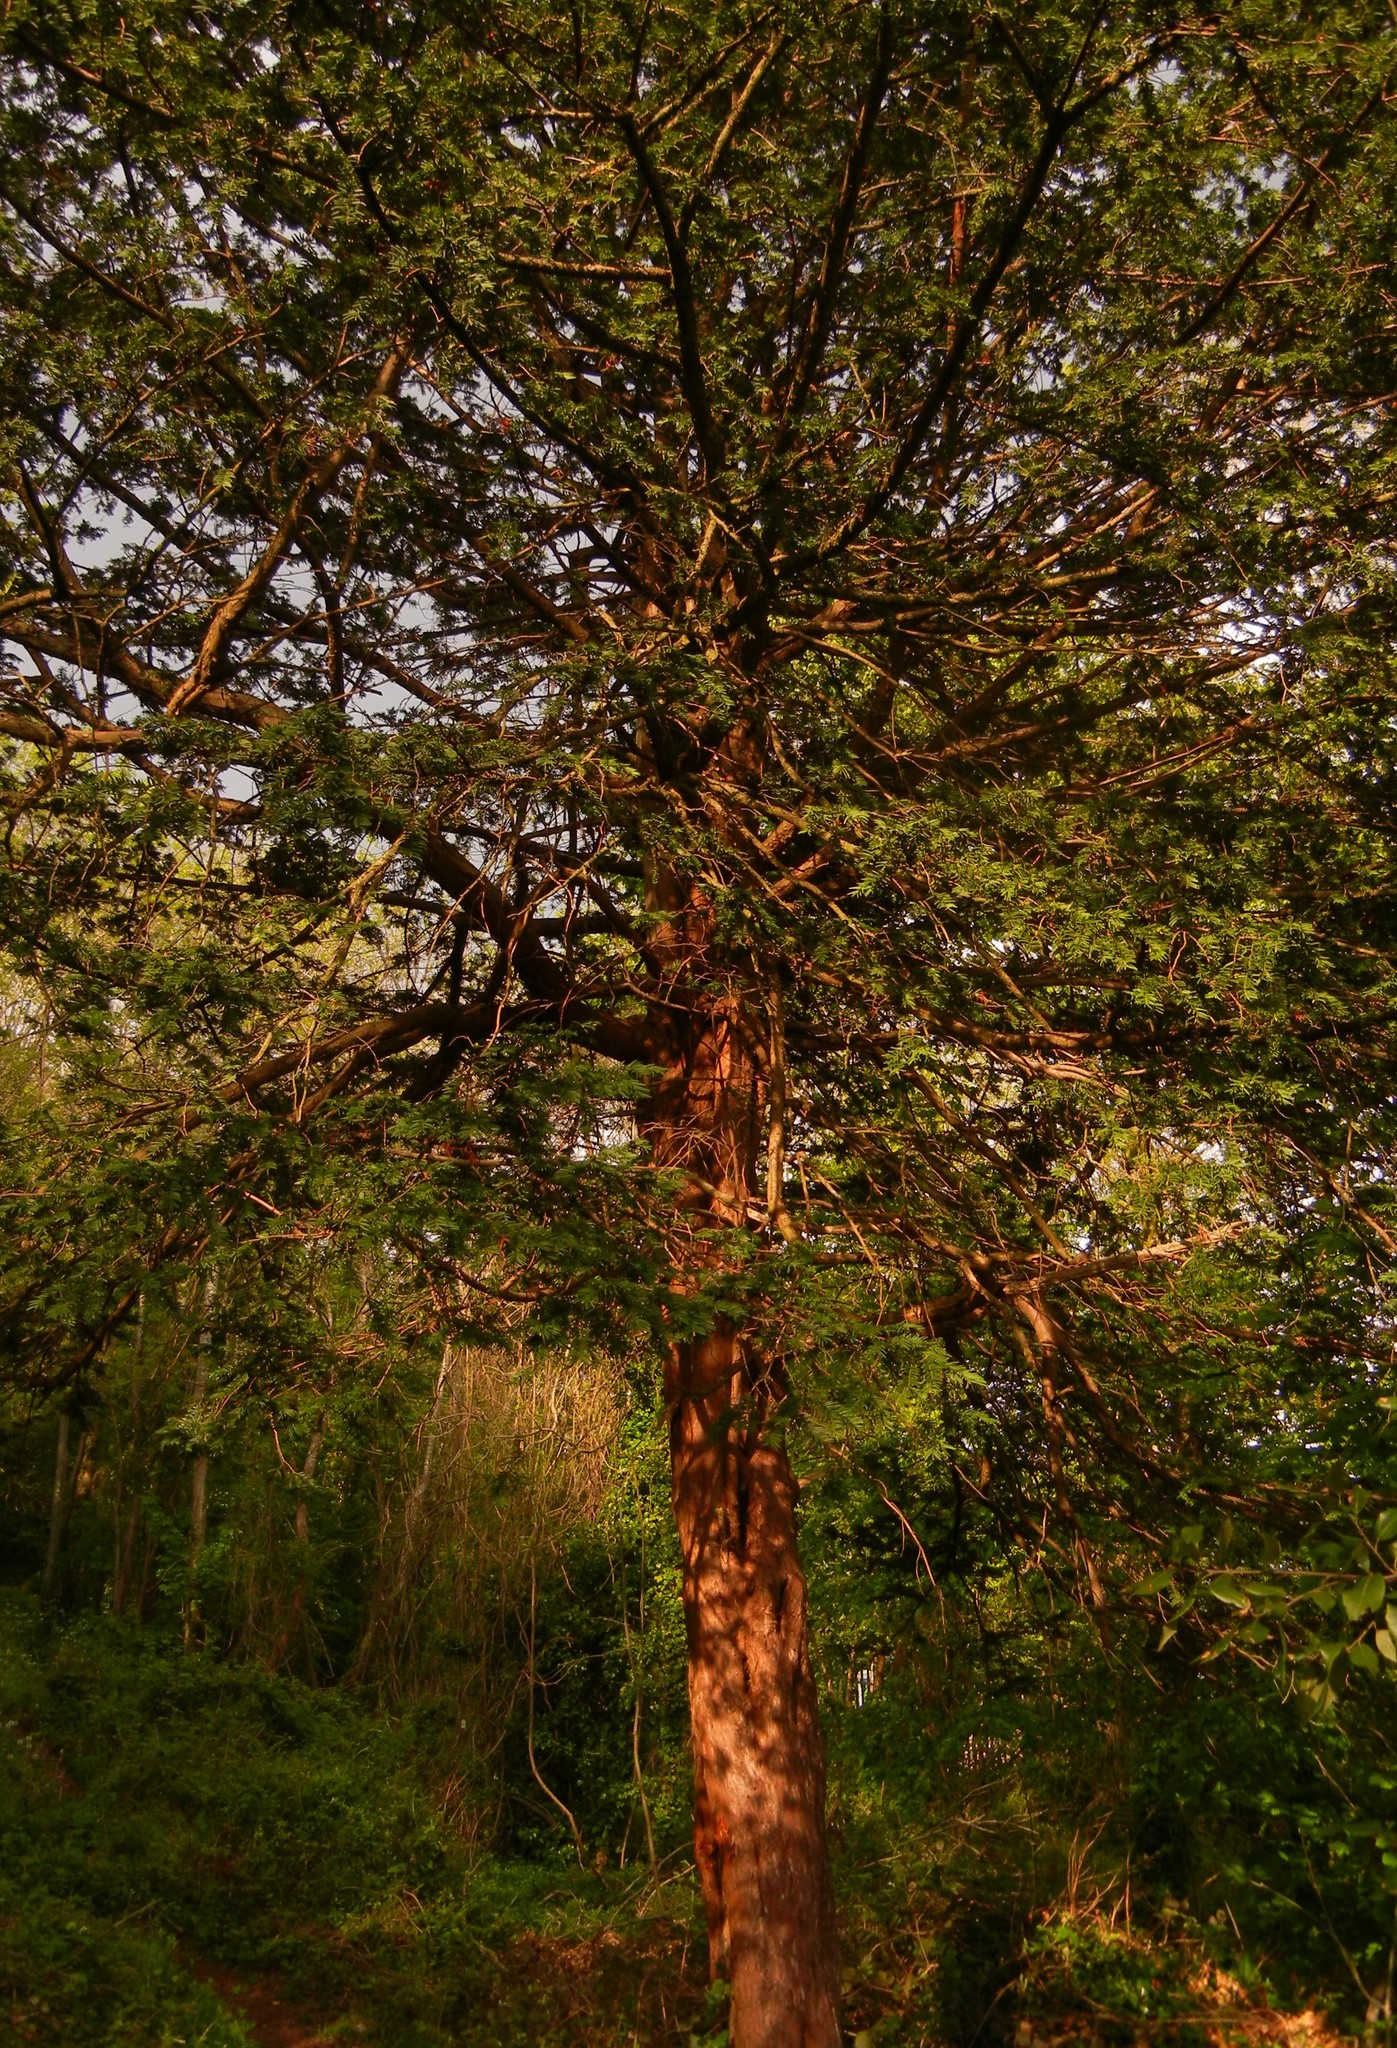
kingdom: Plantae
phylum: Tracheophyta
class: Pinopsida
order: Pinales
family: Taxaceae
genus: Taxus
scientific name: Taxus baccata
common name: Yew
